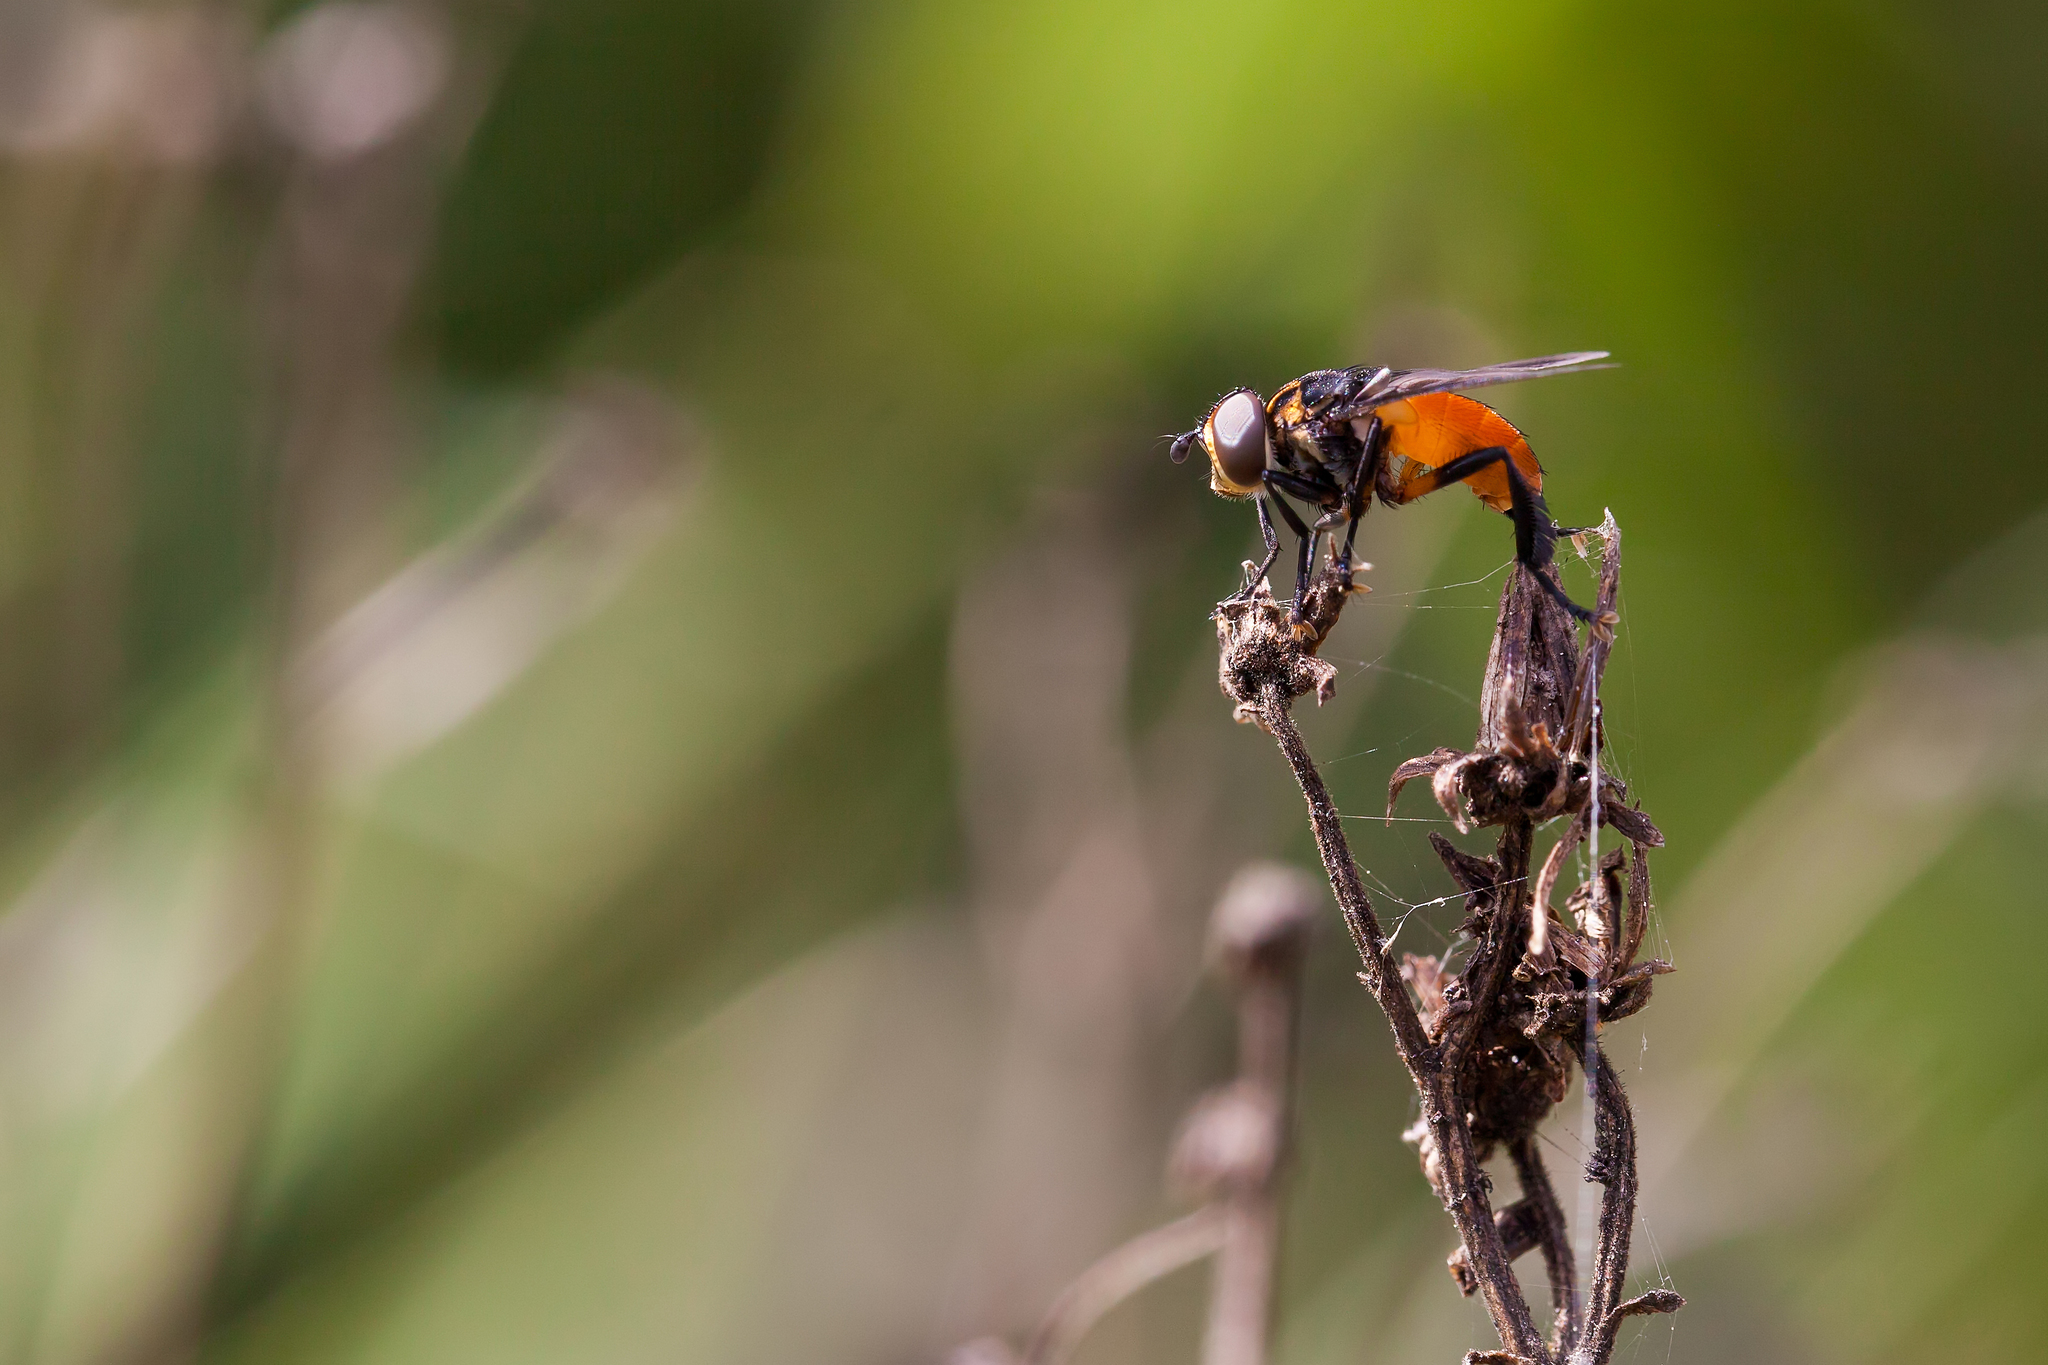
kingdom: Animalia
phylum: Arthropoda
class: Insecta
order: Diptera
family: Tachinidae
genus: Trichopoda
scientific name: Trichopoda pennipes
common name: Tachinid fly
